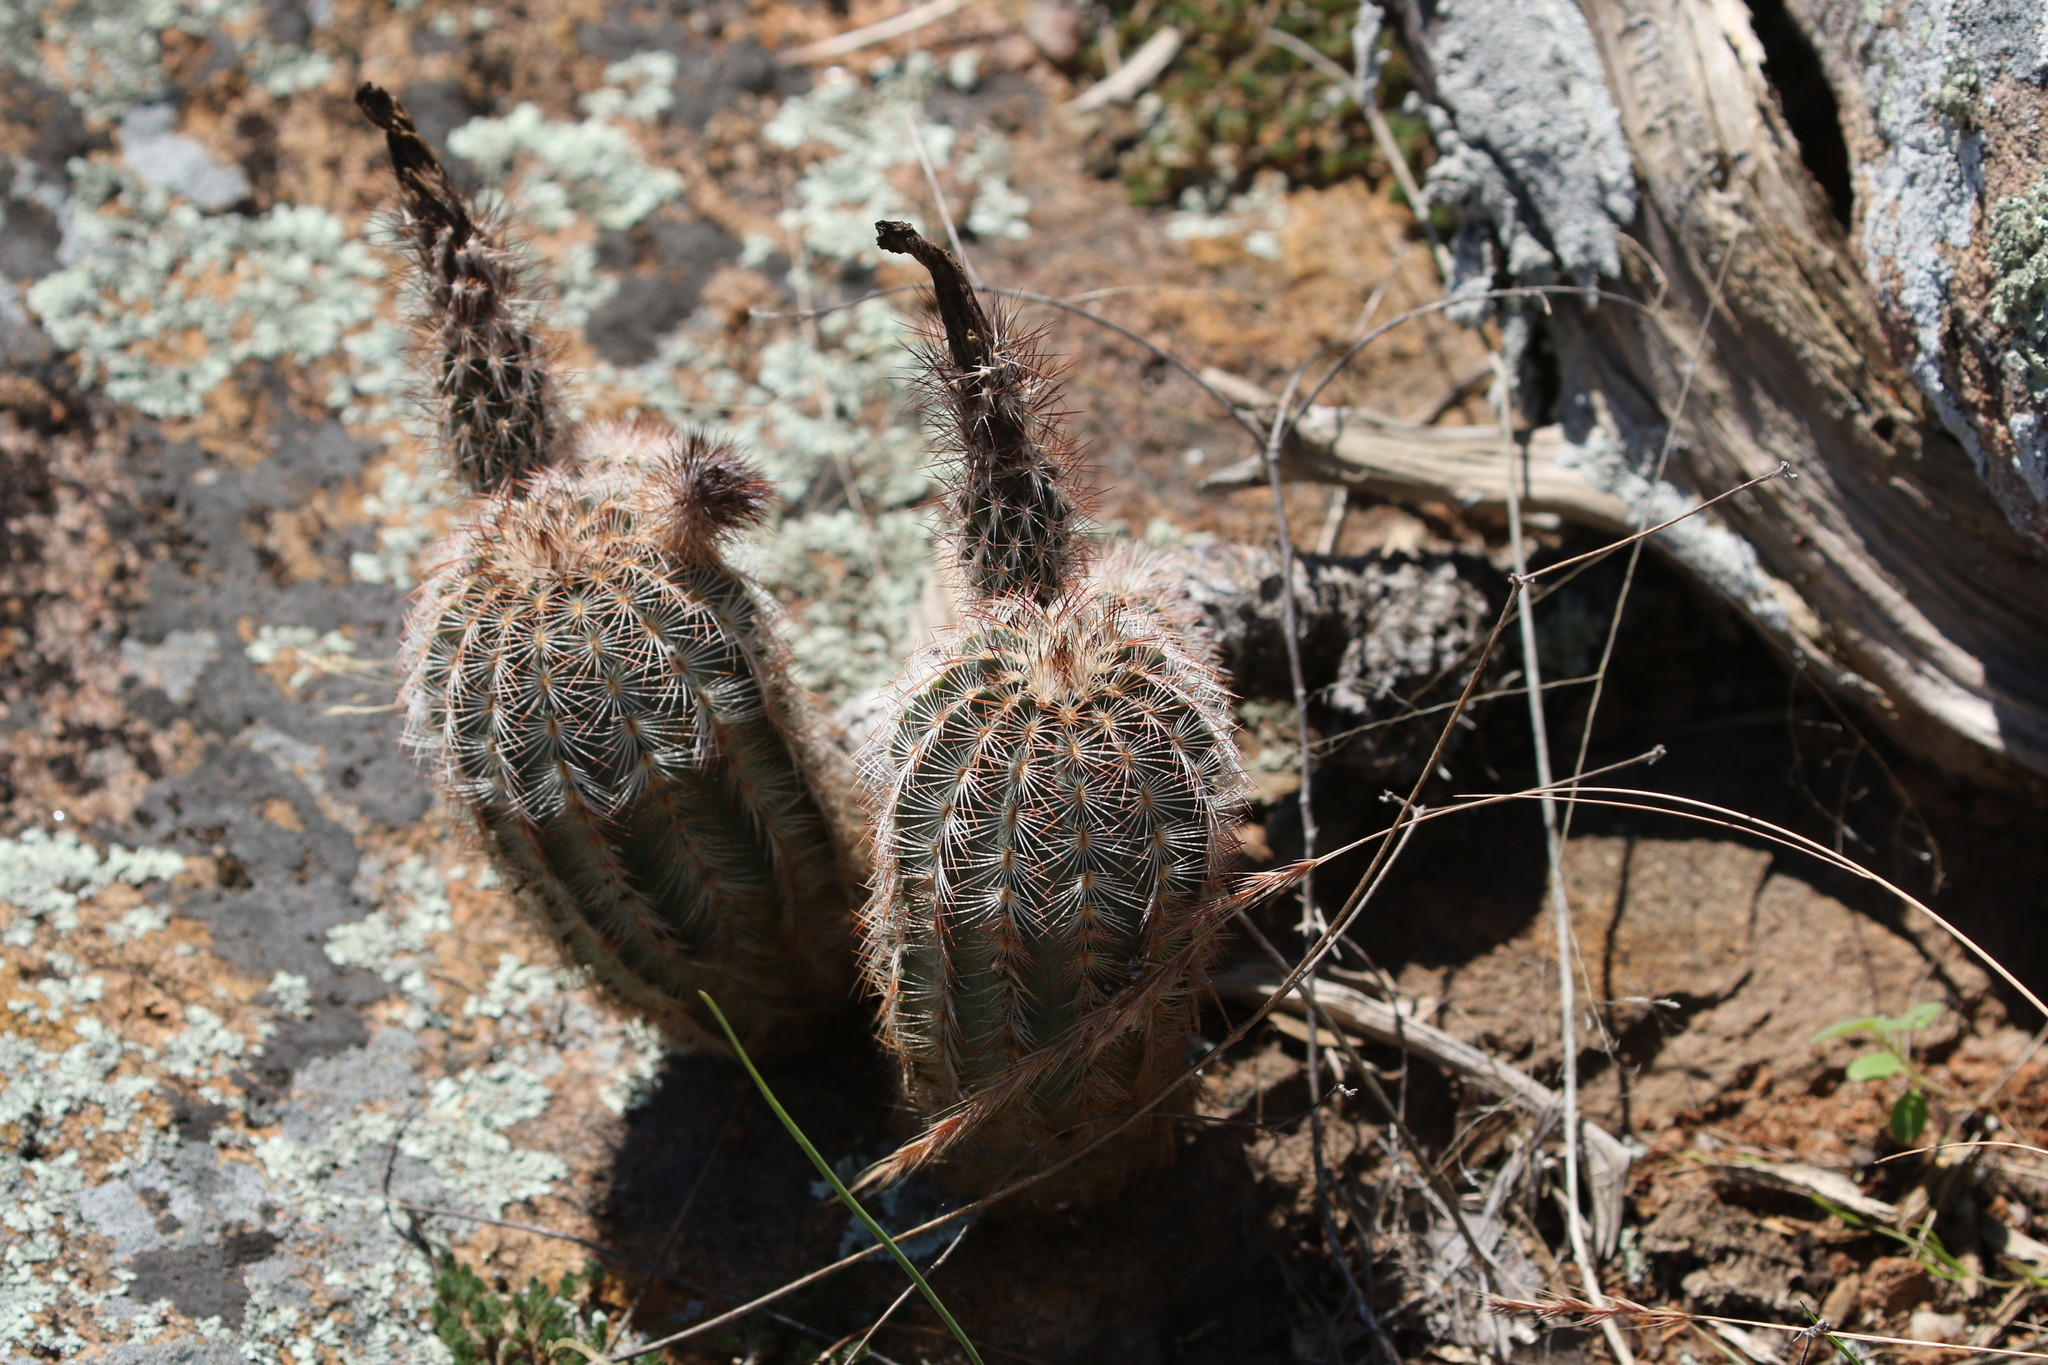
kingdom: Plantae
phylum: Tracheophyta
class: Magnoliopsida
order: Caryophyllales
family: Cactaceae
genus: Echinocereus
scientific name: Echinocereus reichenbachii
